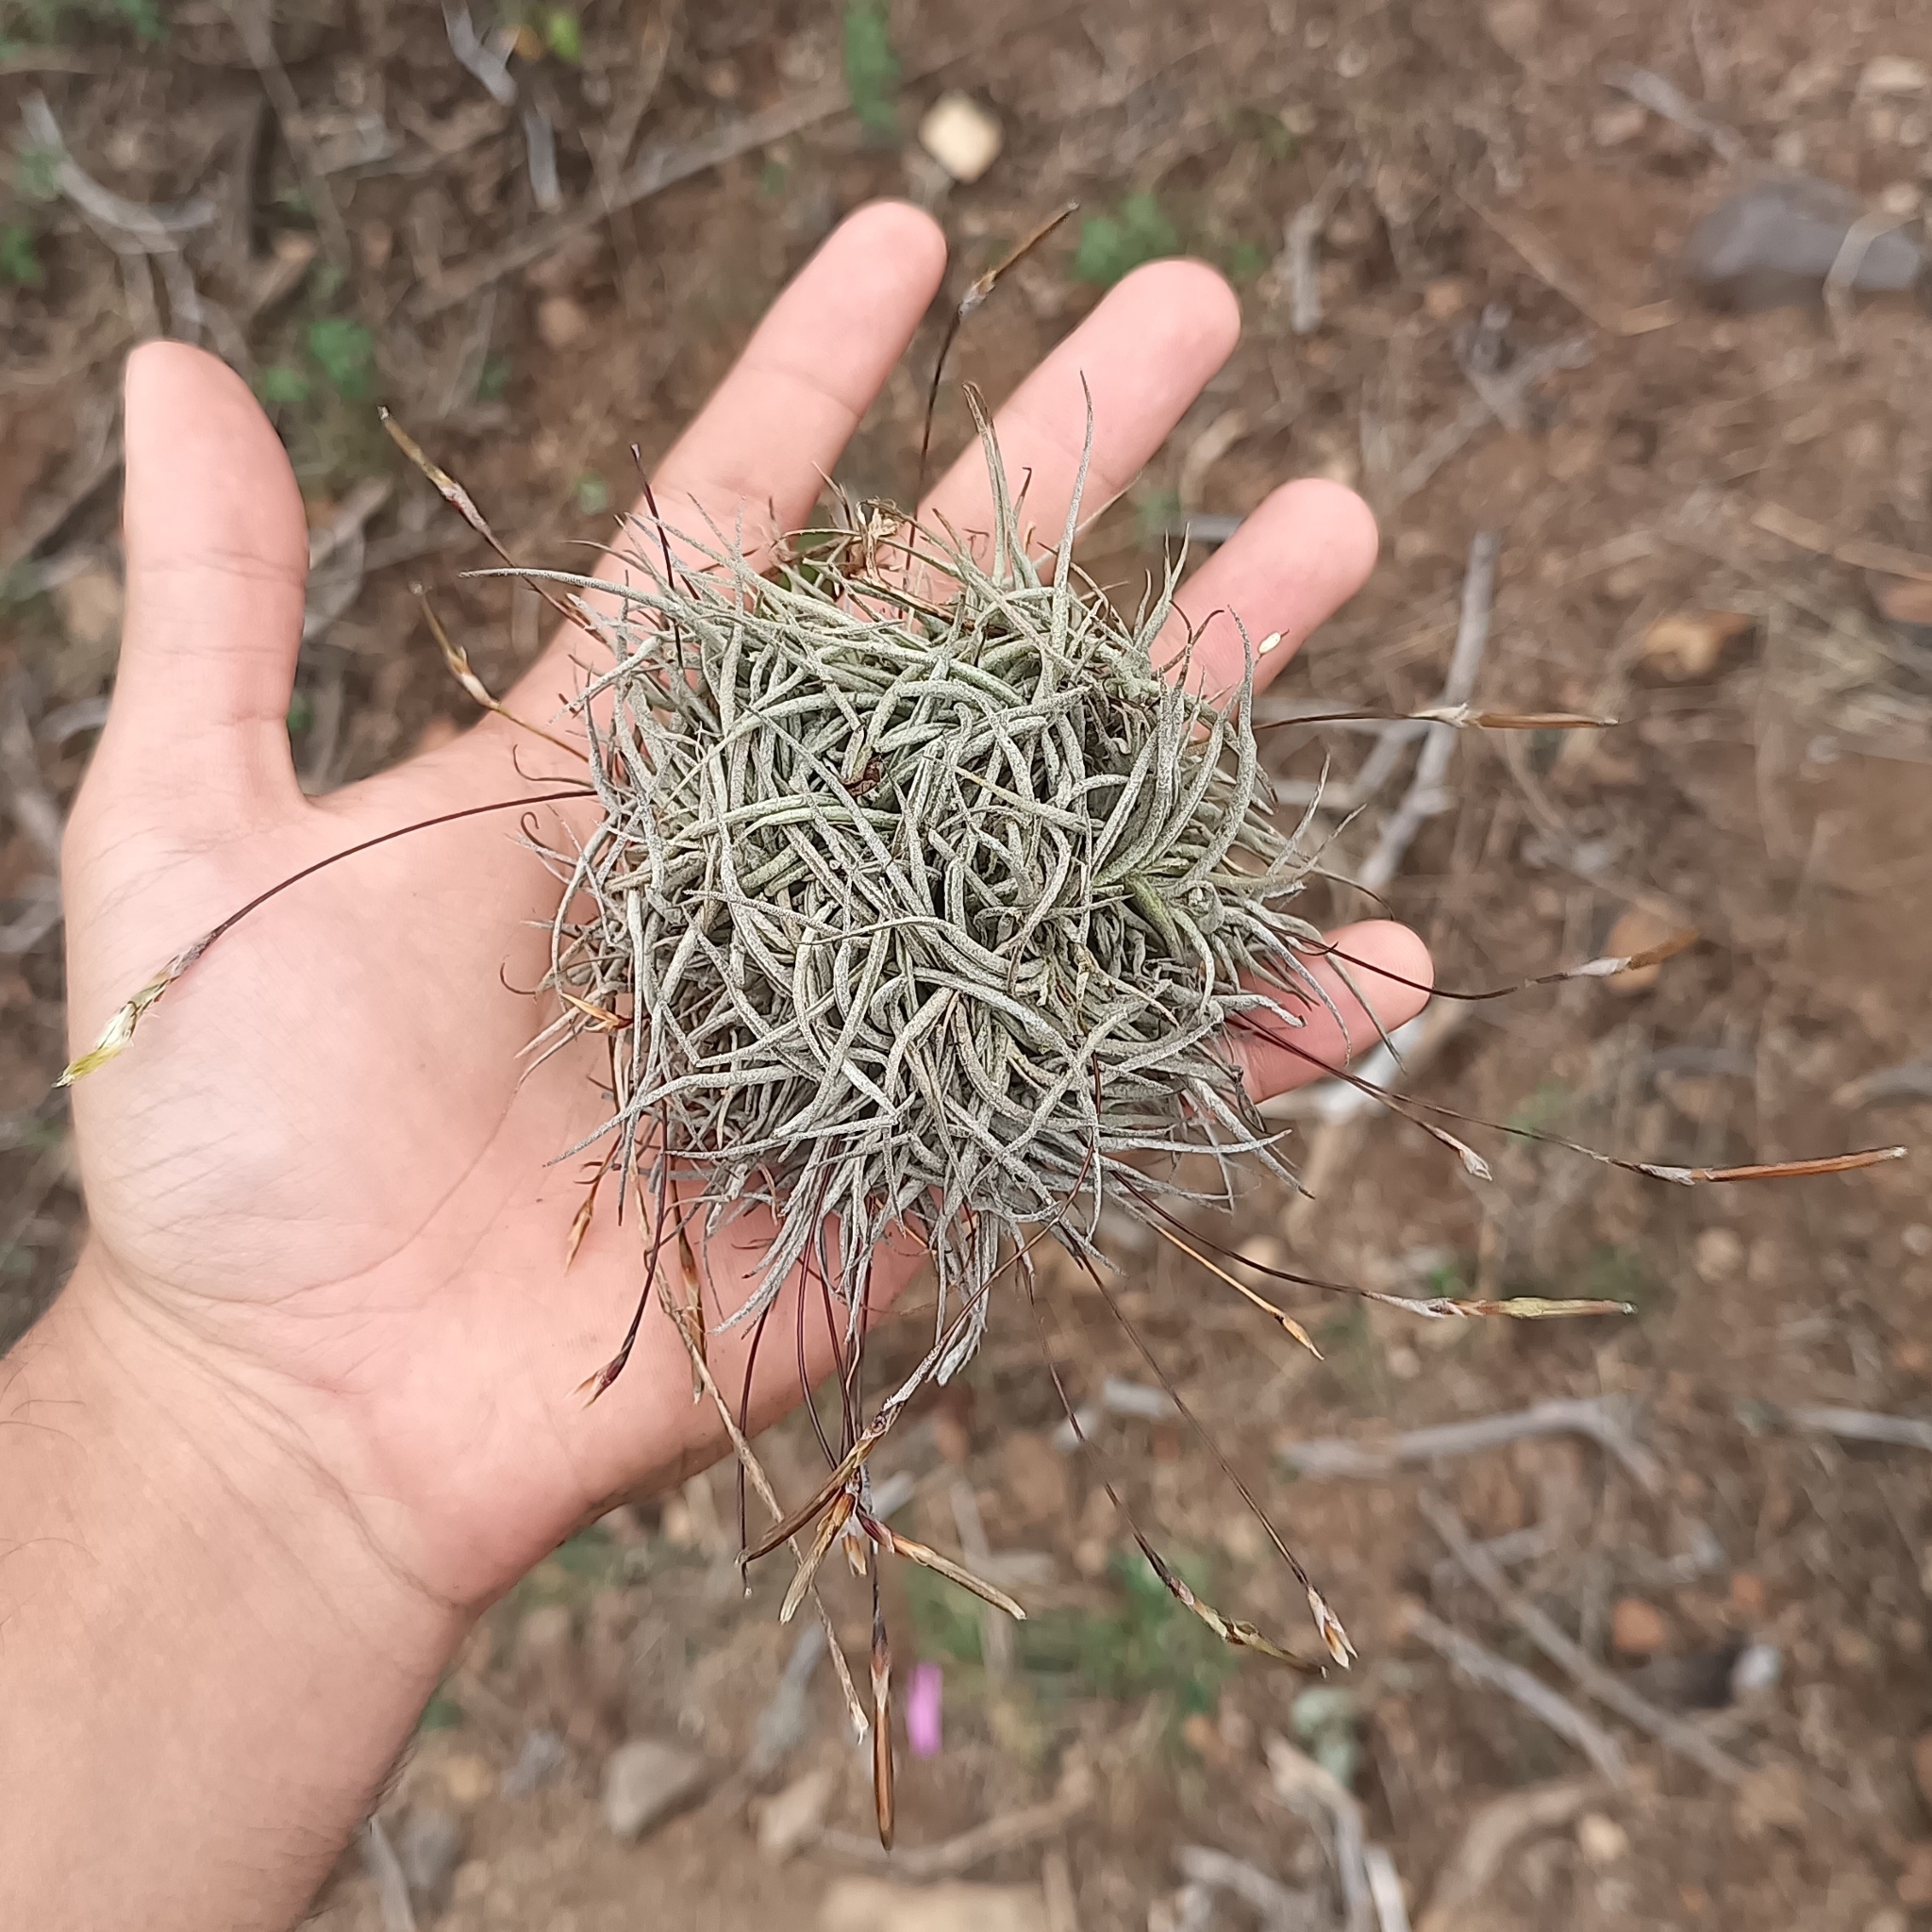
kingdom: Plantae
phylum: Tracheophyta
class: Liliopsida
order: Poales
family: Bromeliaceae
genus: Tillandsia
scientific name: Tillandsia recurvata
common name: Small ballmoss
